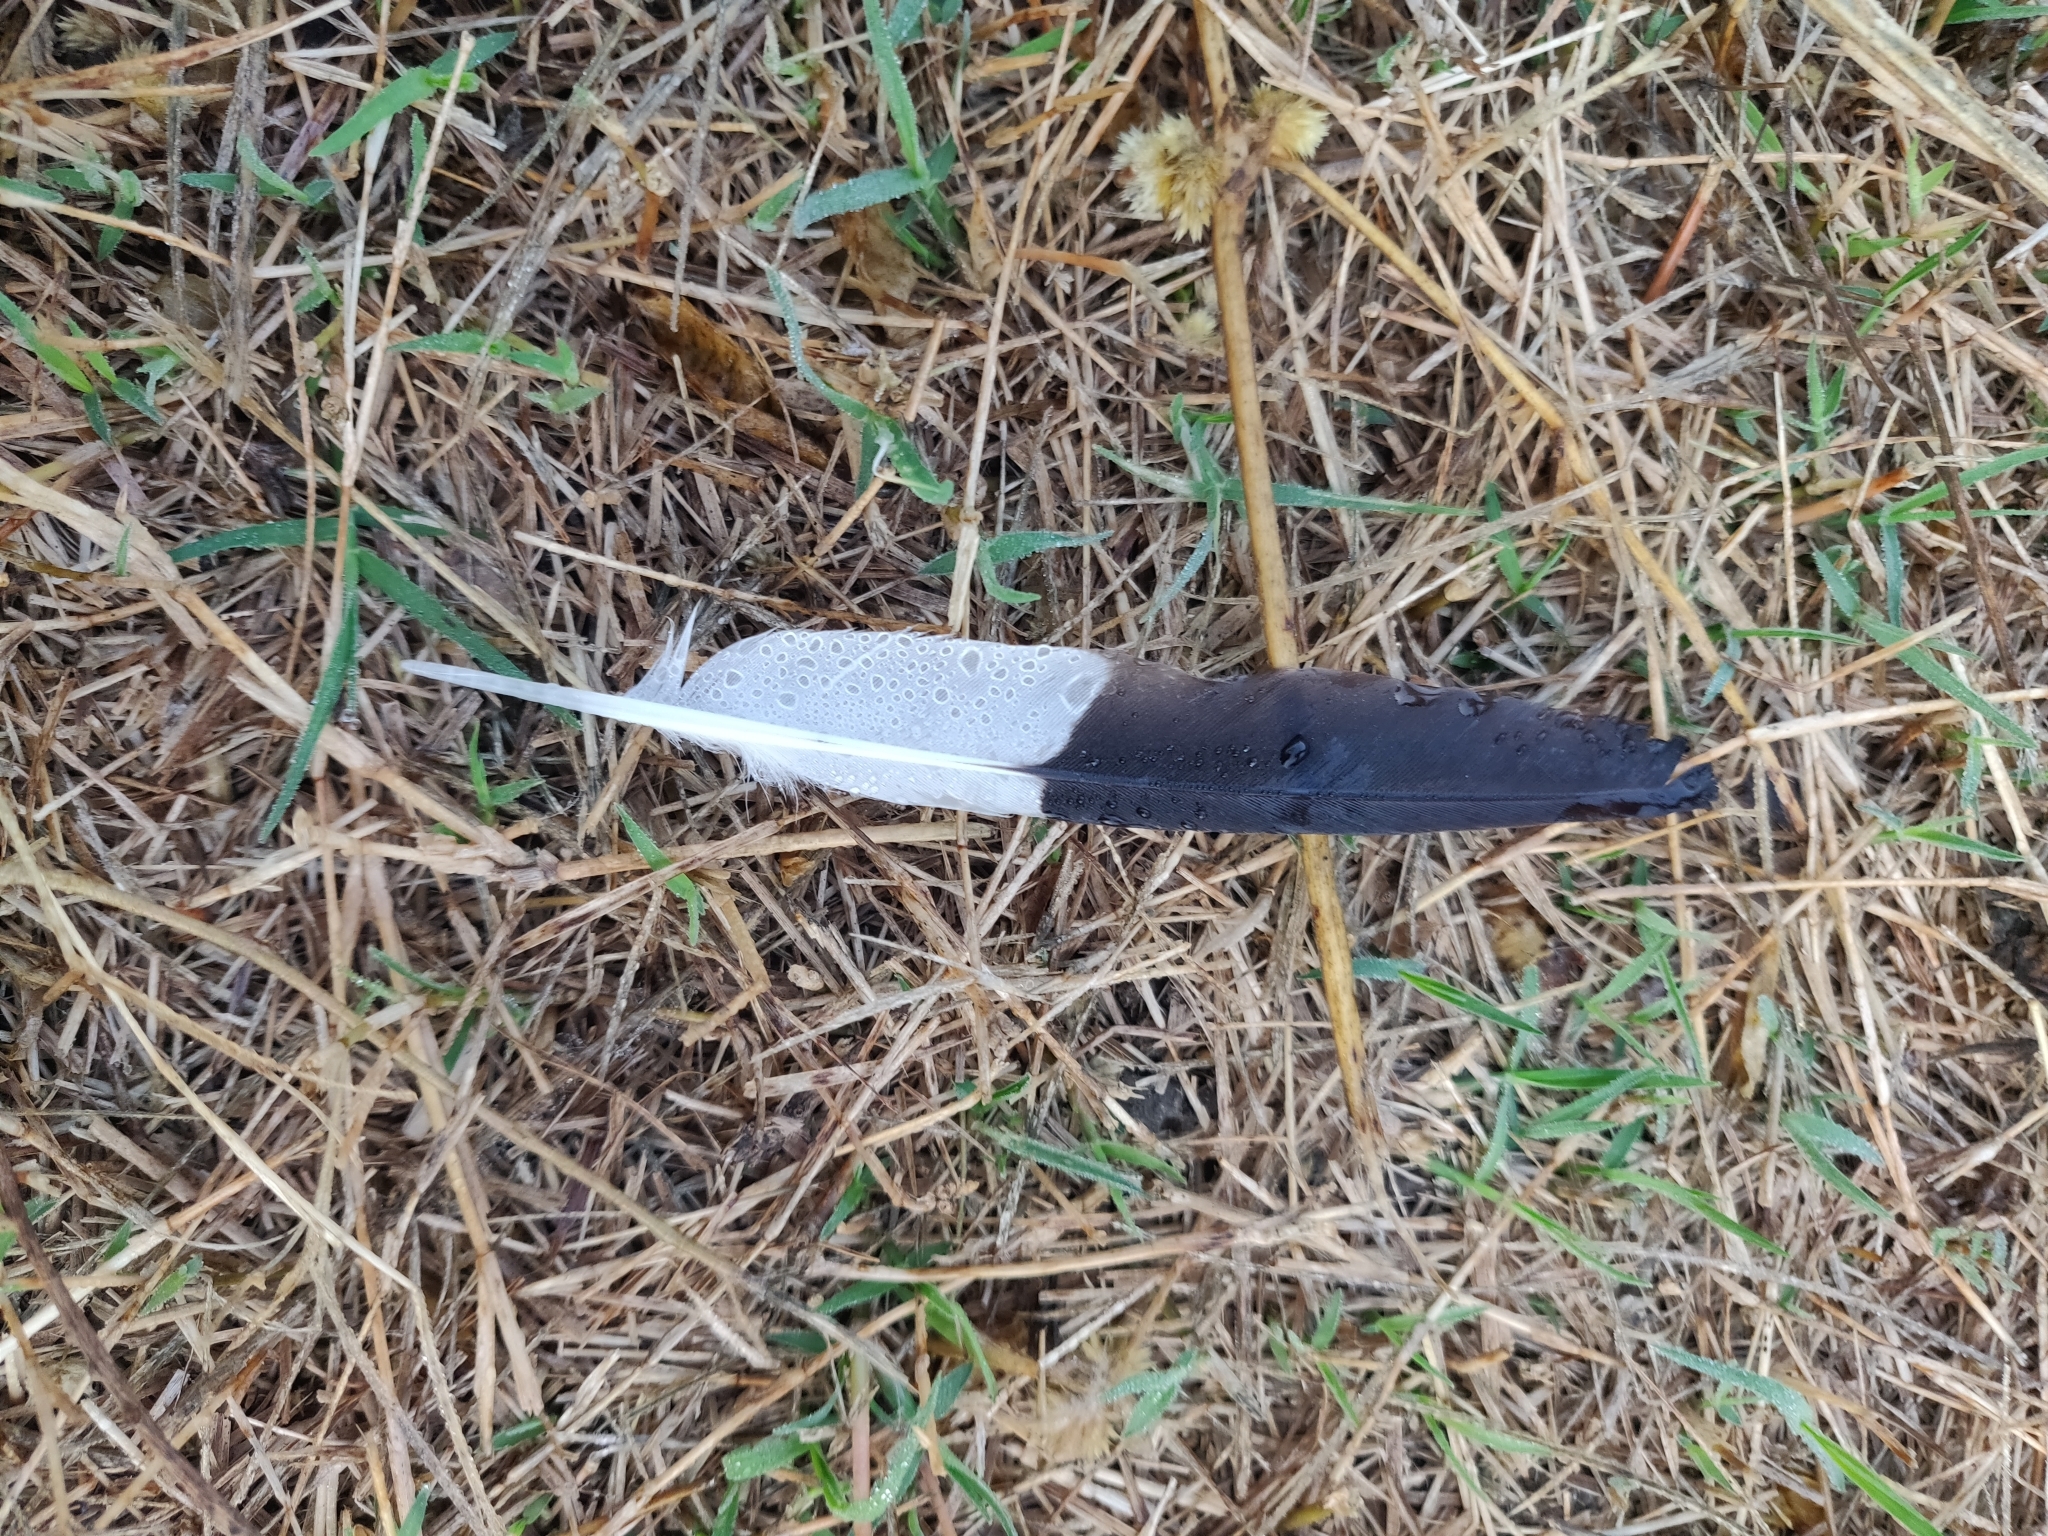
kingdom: Animalia
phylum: Chordata
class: Aves
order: Passeriformes
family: Sturnidae
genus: Acridotheres
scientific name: Acridotheres tristis
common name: Common myna
